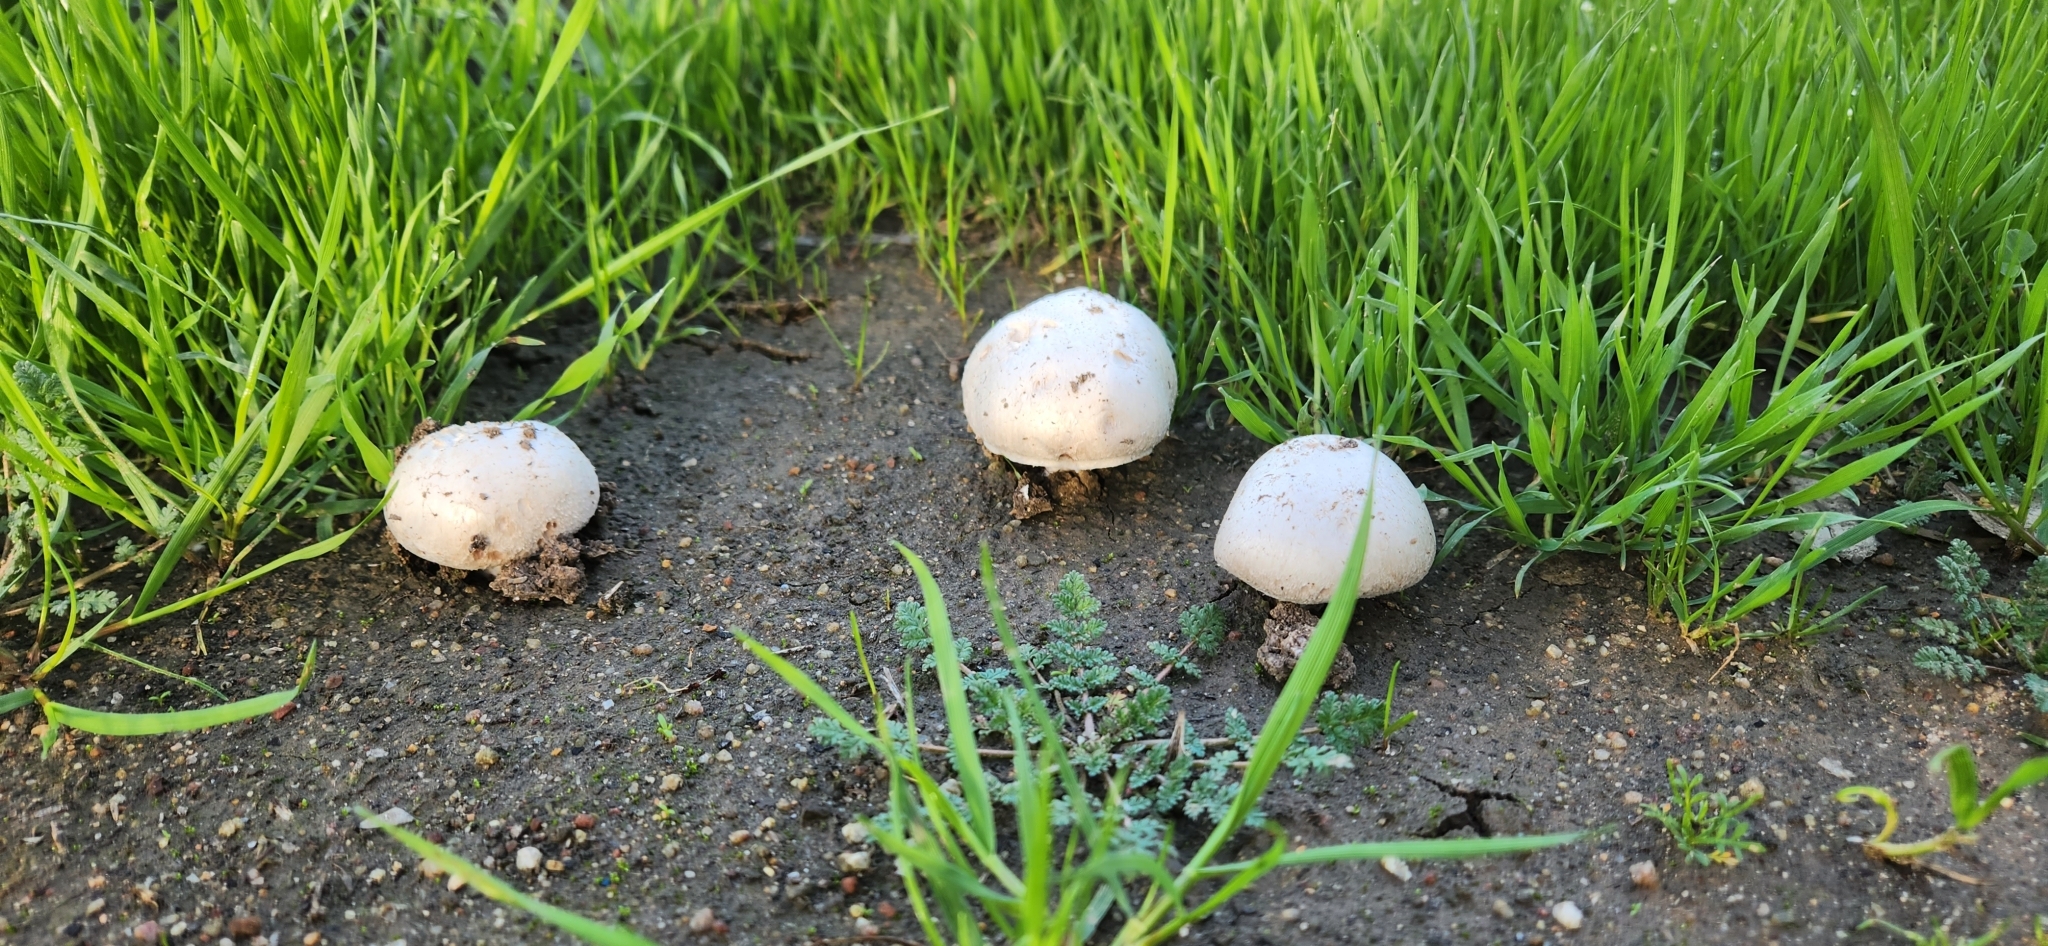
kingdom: Fungi
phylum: Basidiomycota
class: Agaricomycetes
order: Agaricales
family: Agaricaceae
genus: Agaricus
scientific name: Agaricus campestris
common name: Field mushroom
